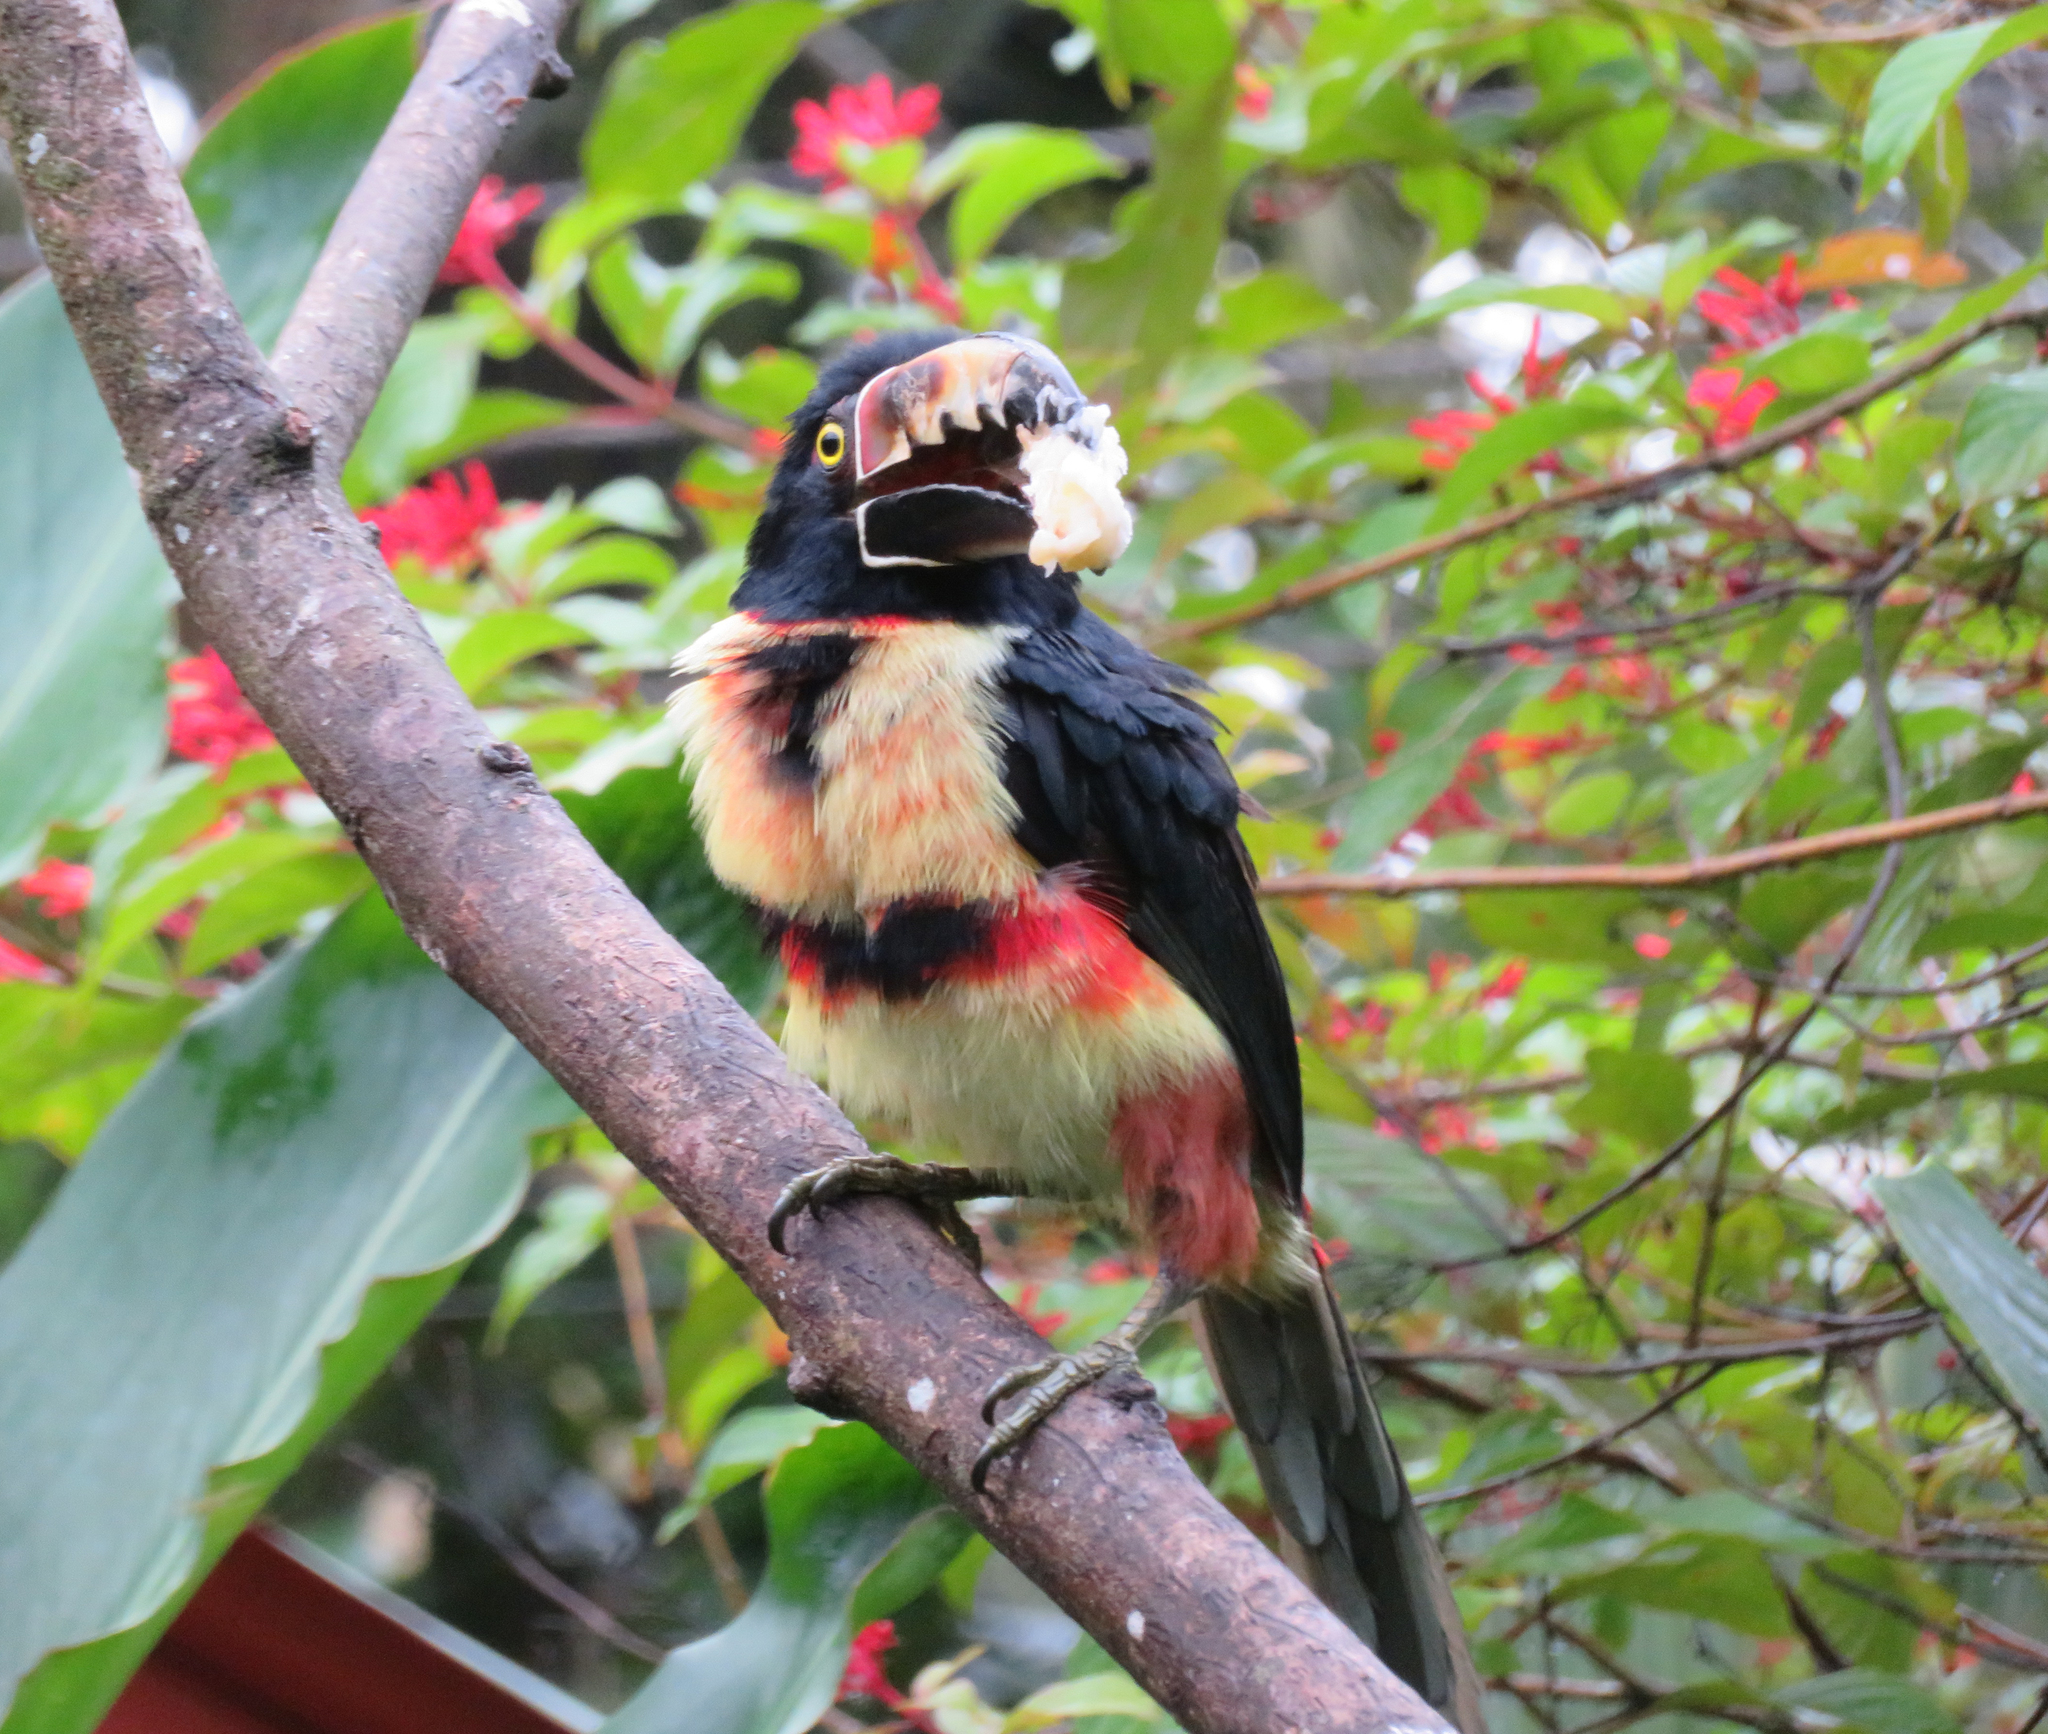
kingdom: Animalia
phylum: Chordata
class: Aves
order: Piciformes
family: Ramphastidae
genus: Pteroglossus
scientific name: Pteroglossus torquatus
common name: Collared aracari
